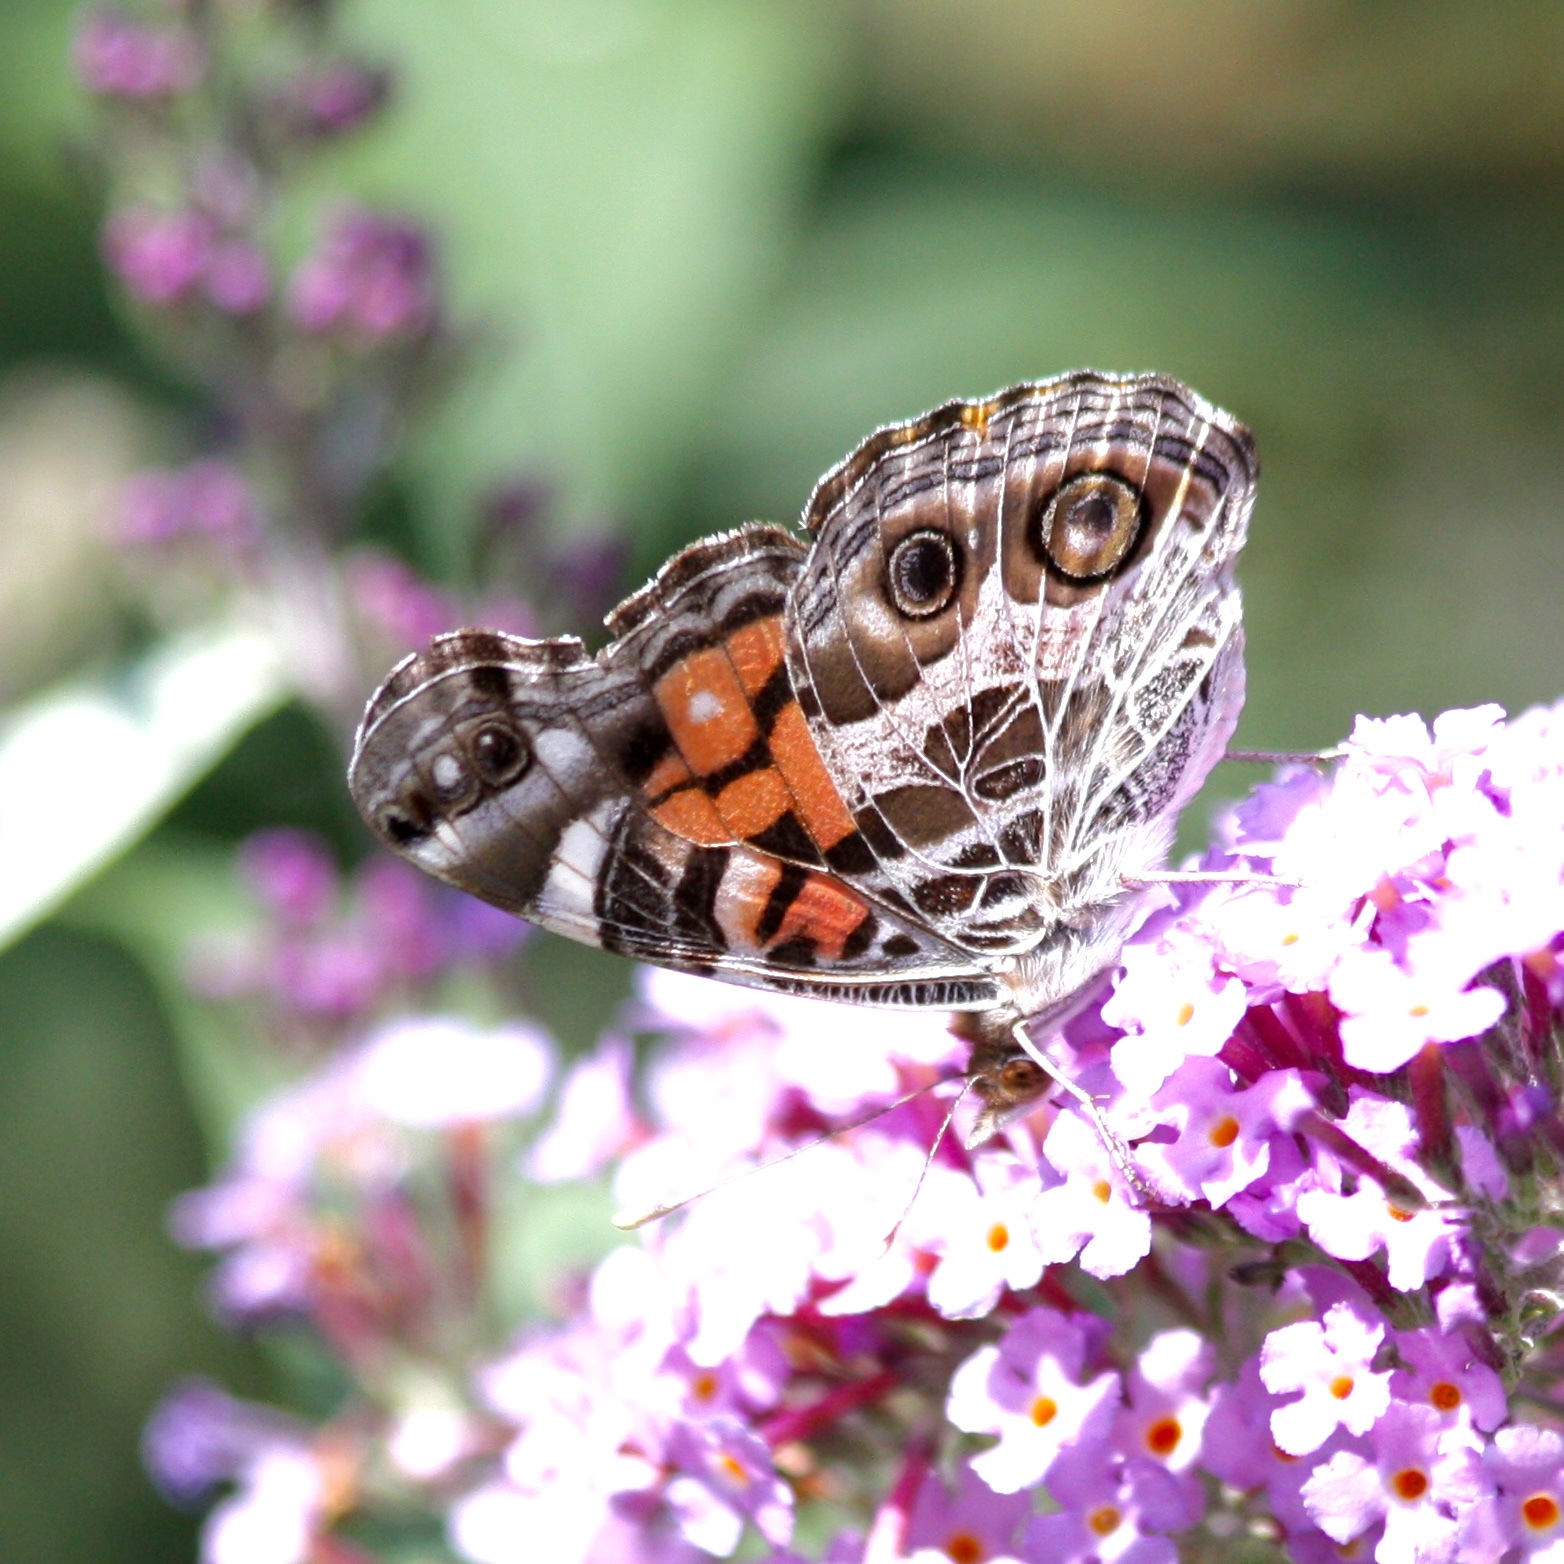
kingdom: Animalia
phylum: Arthropoda
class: Insecta
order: Lepidoptera
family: Nymphalidae
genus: Vanessa
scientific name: Vanessa virginiensis
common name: American lady
